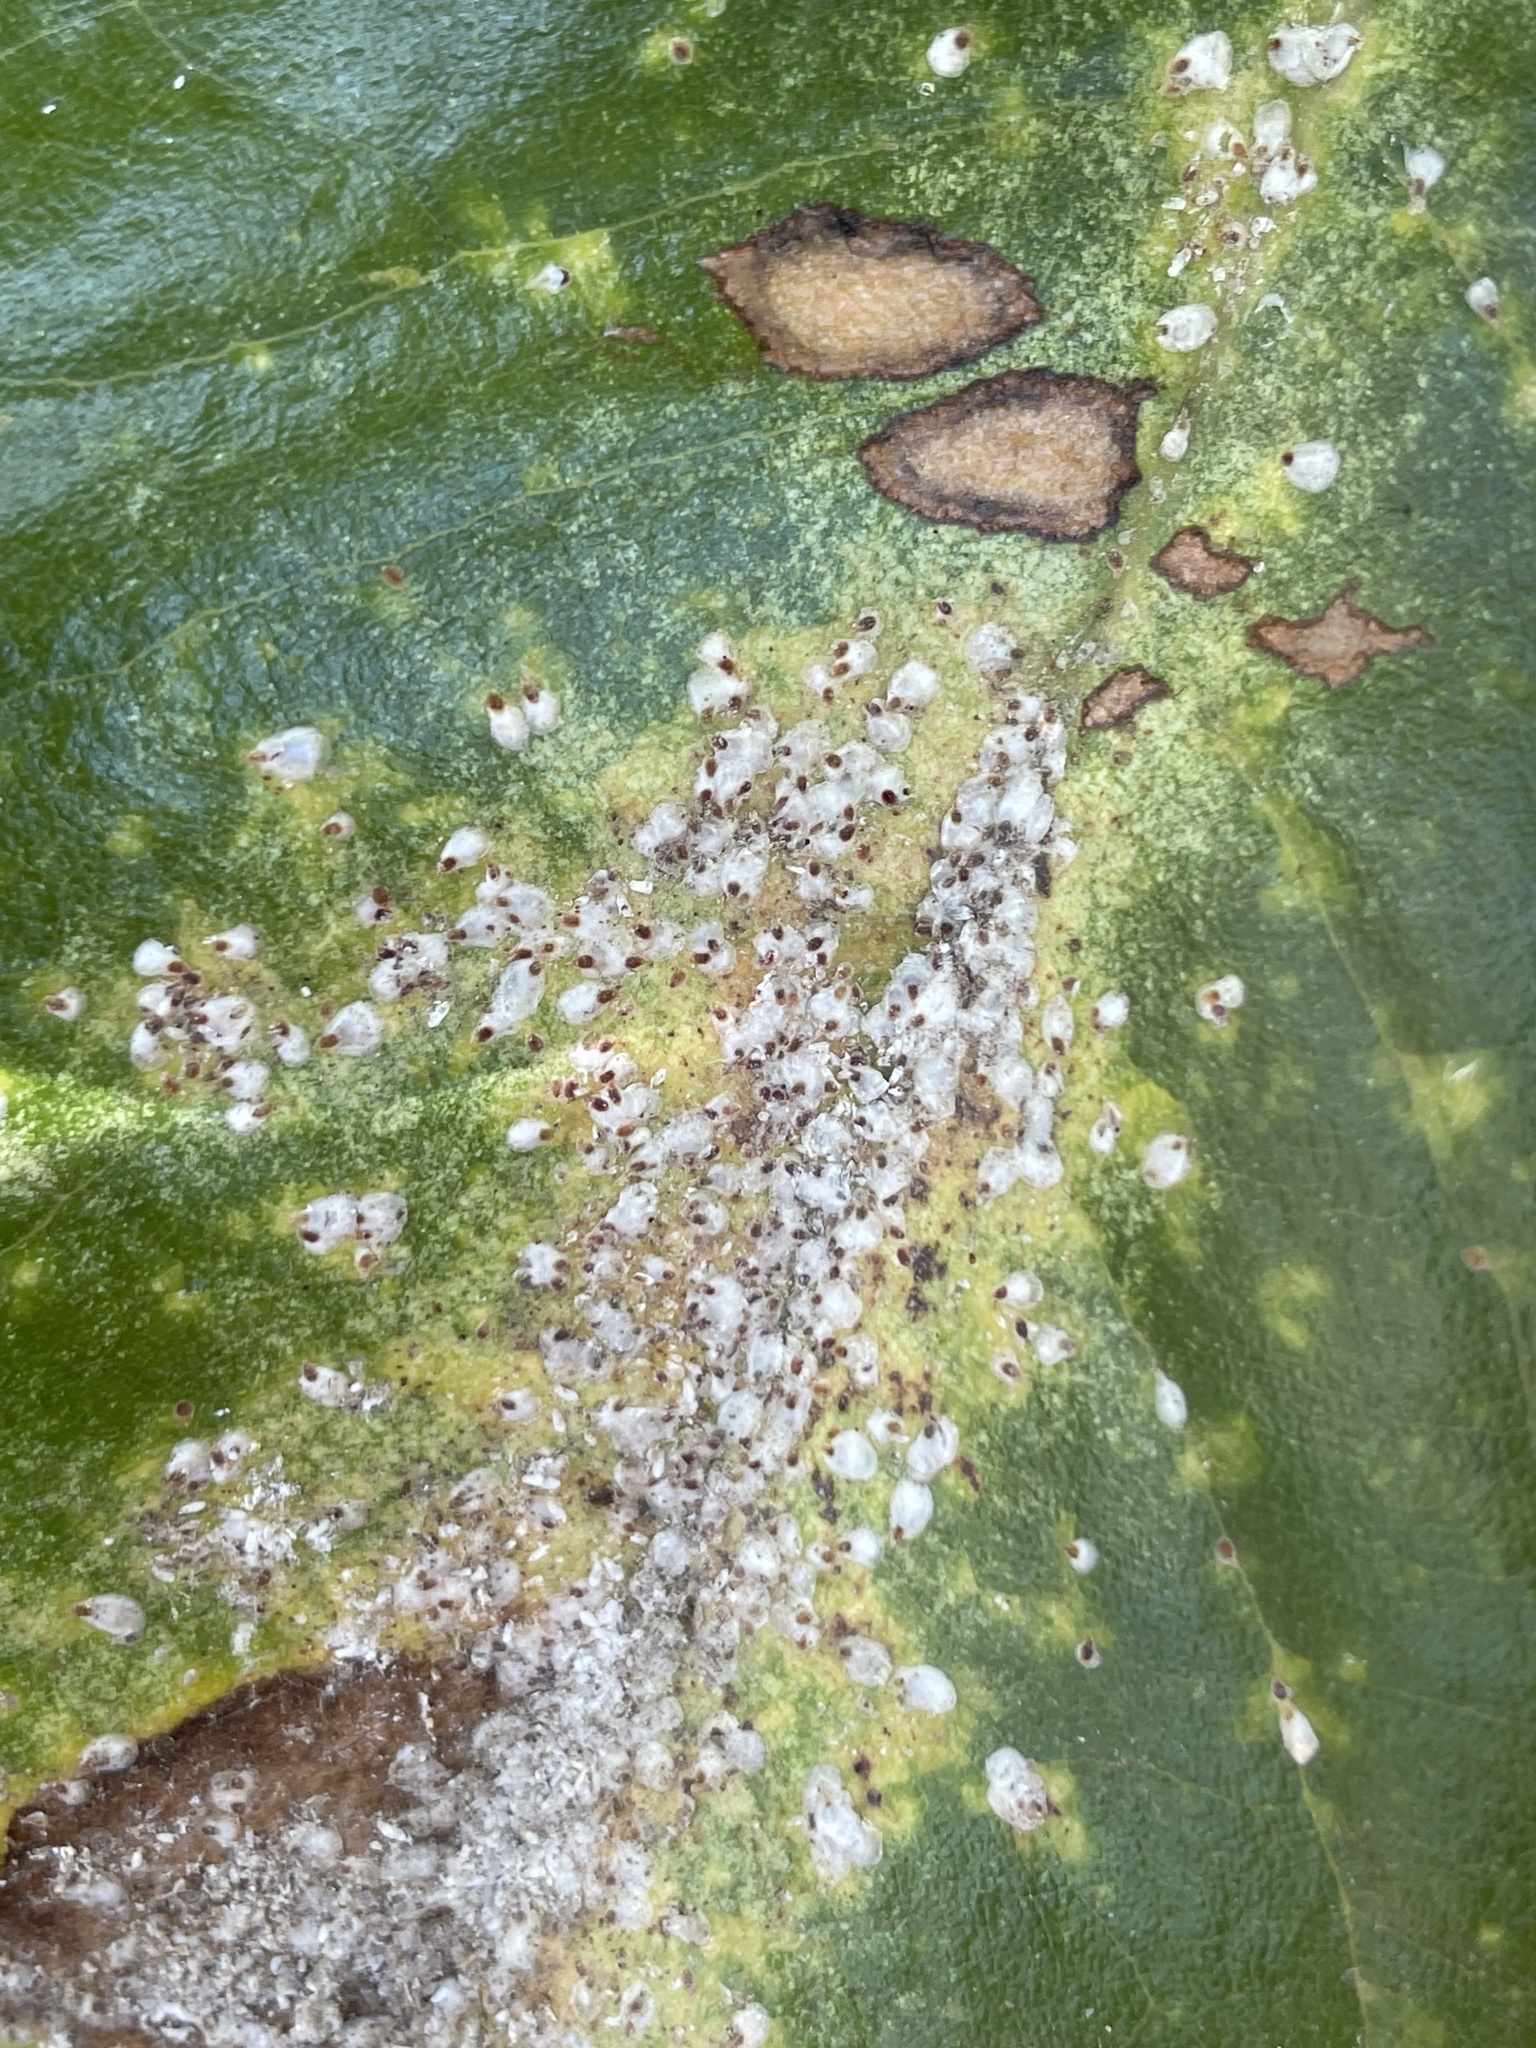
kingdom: Animalia
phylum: Arthropoda
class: Insecta
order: Hemiptera
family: Diaspididae
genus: Pseudaulacaspis
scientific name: Pseudaulacaspis cockerelli
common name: False oleander scale
